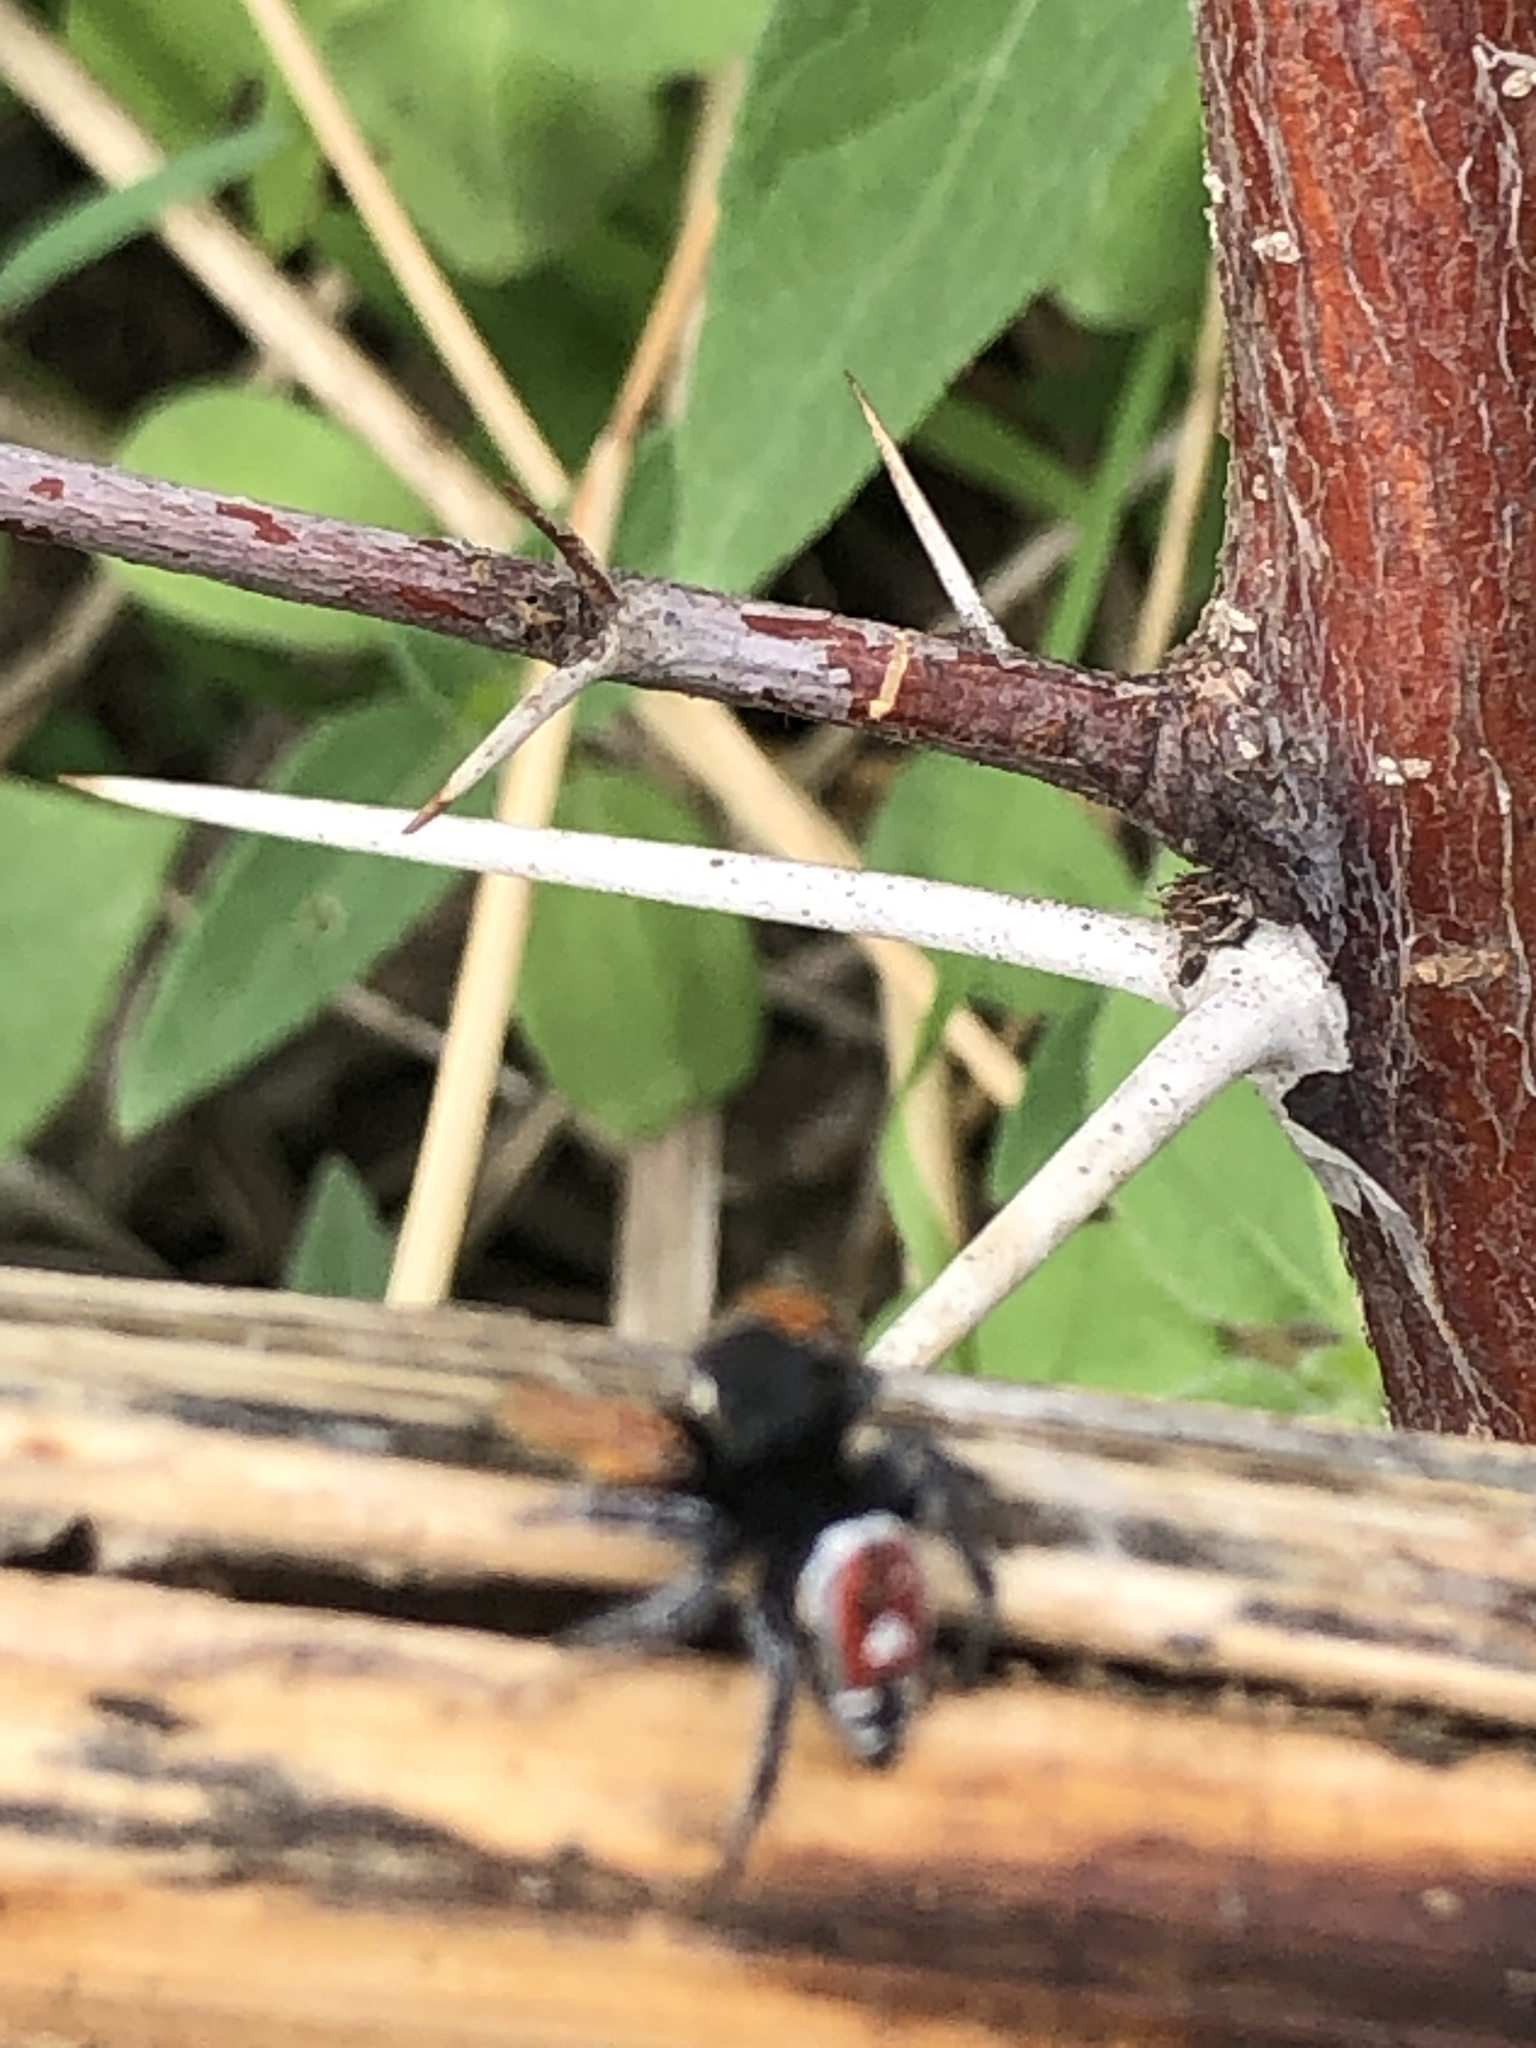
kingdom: Animalia
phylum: Arthropoda
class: Arachnida
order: Araneae
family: Salticidae
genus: Phidippus
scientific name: Phidippus cruentus
